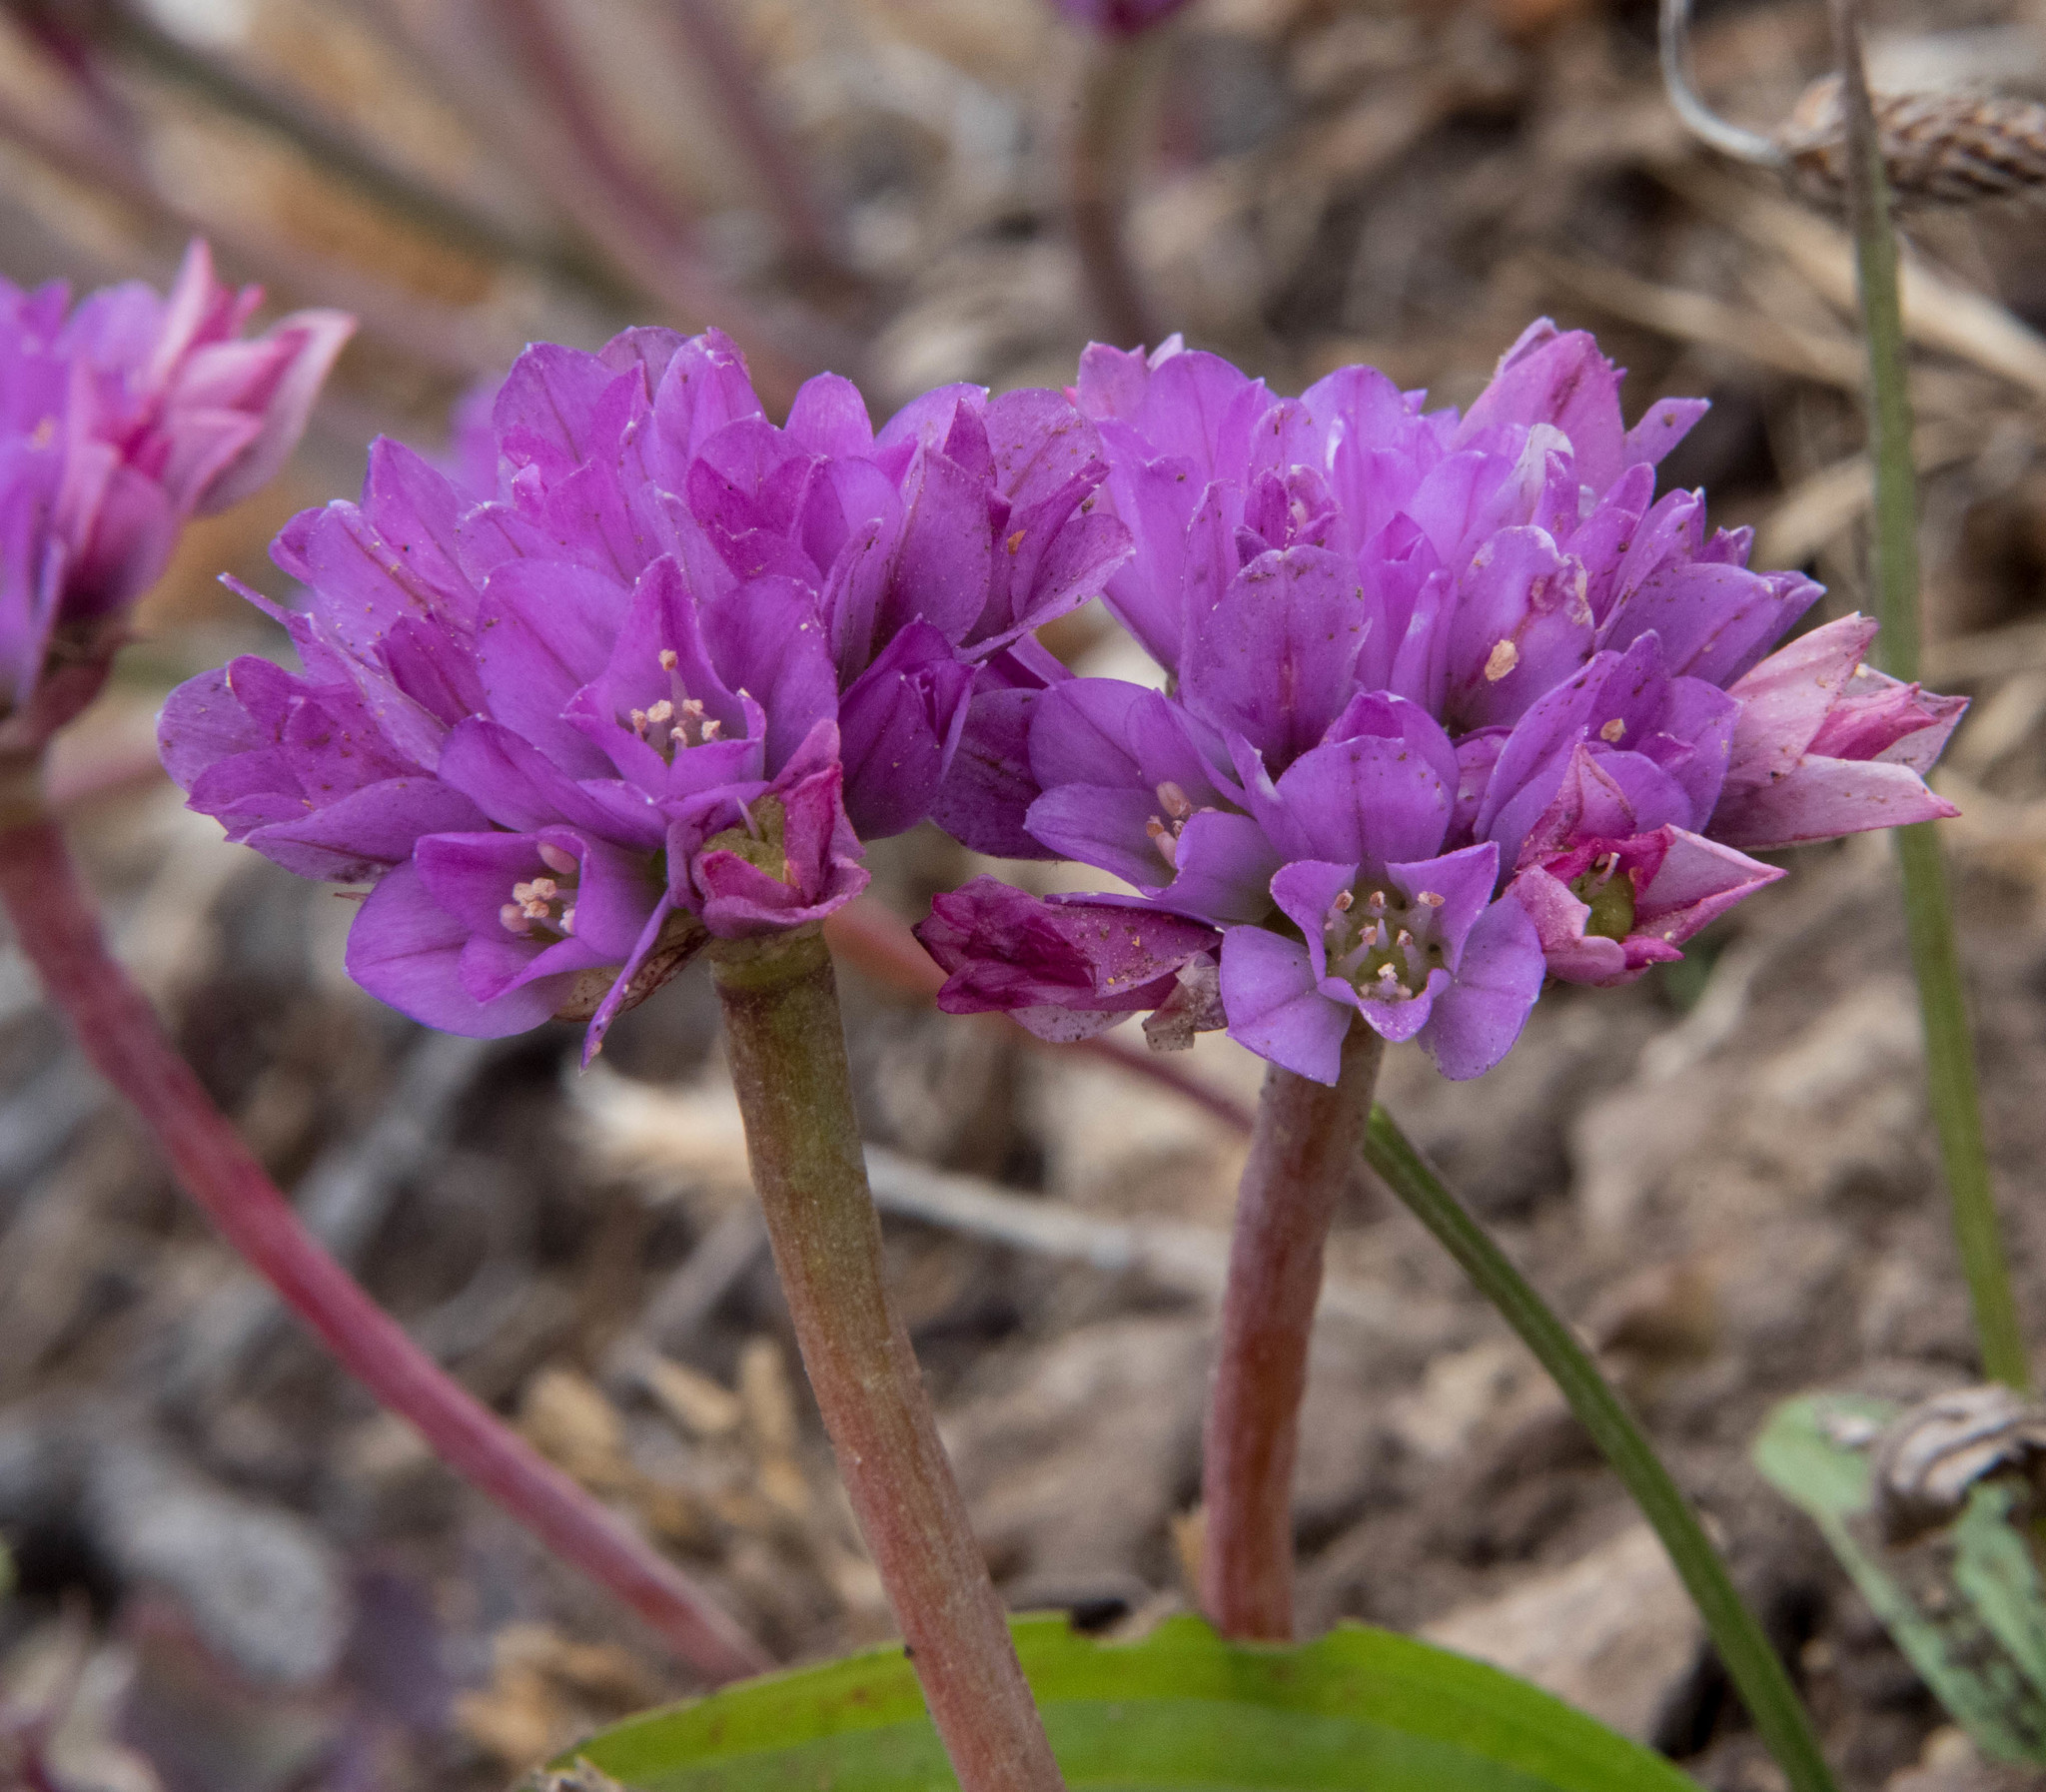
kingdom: Plantae
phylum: Tracheophyta
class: Liliopsida
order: Asparagales
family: Amaryllidaceae
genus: Allium
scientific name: Allium dichlamydeum
